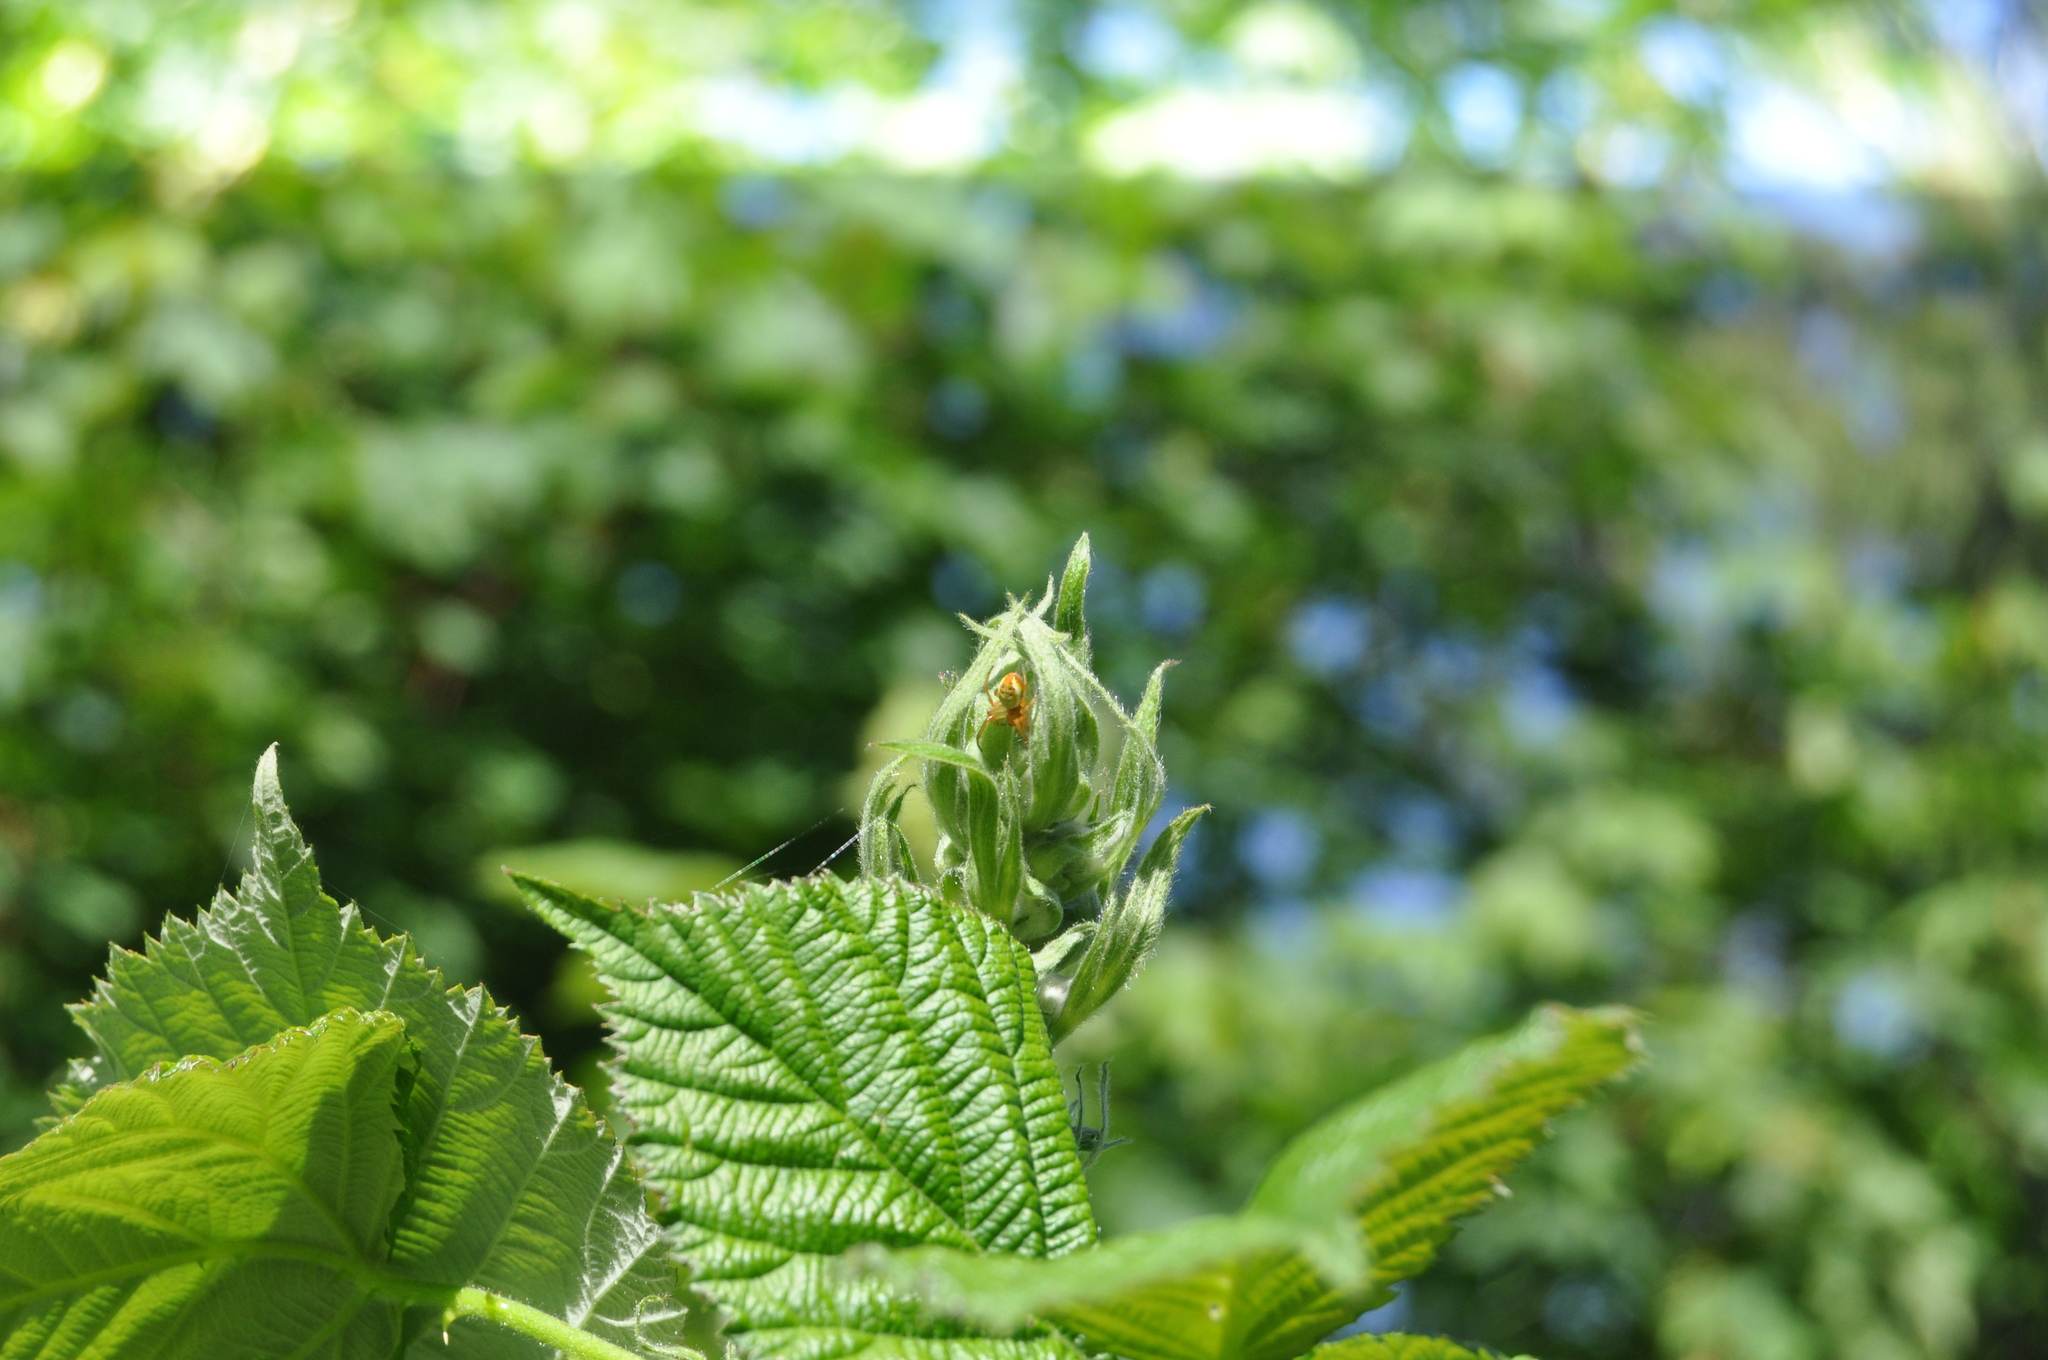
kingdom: Animalia
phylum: Arthropoda
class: Arachnida
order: Araneae
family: Araneidae
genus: Araniella
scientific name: Araniella displicata
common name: Sixspotted orb weaver
